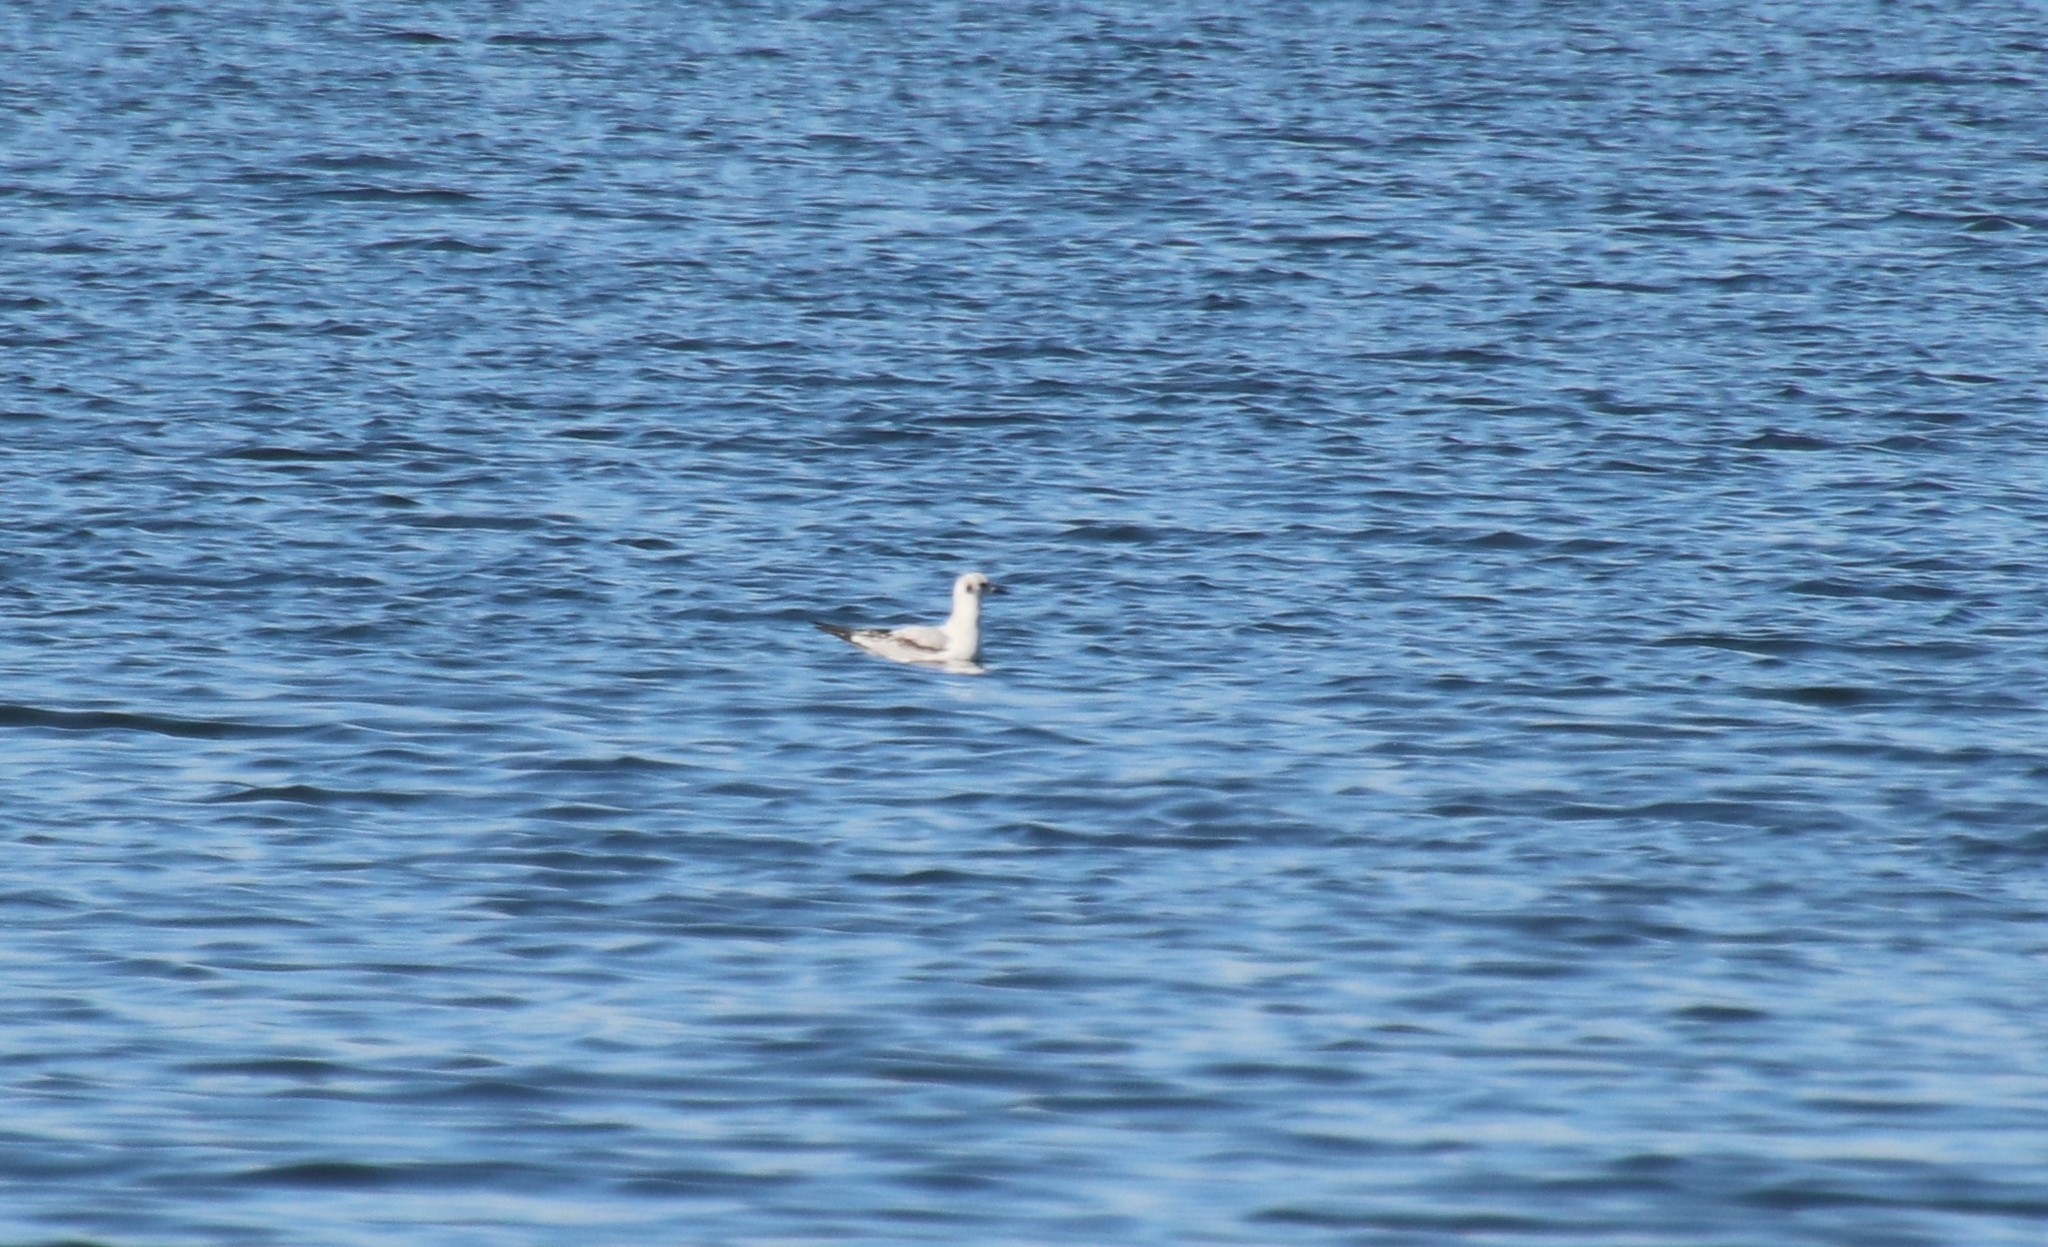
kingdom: Animalia
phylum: Chordata
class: Aves
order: Charadriiformes
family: Laridae
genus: Chroicocephalus
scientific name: Chroicocephalus philadelphia
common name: Bonaparte's gull
